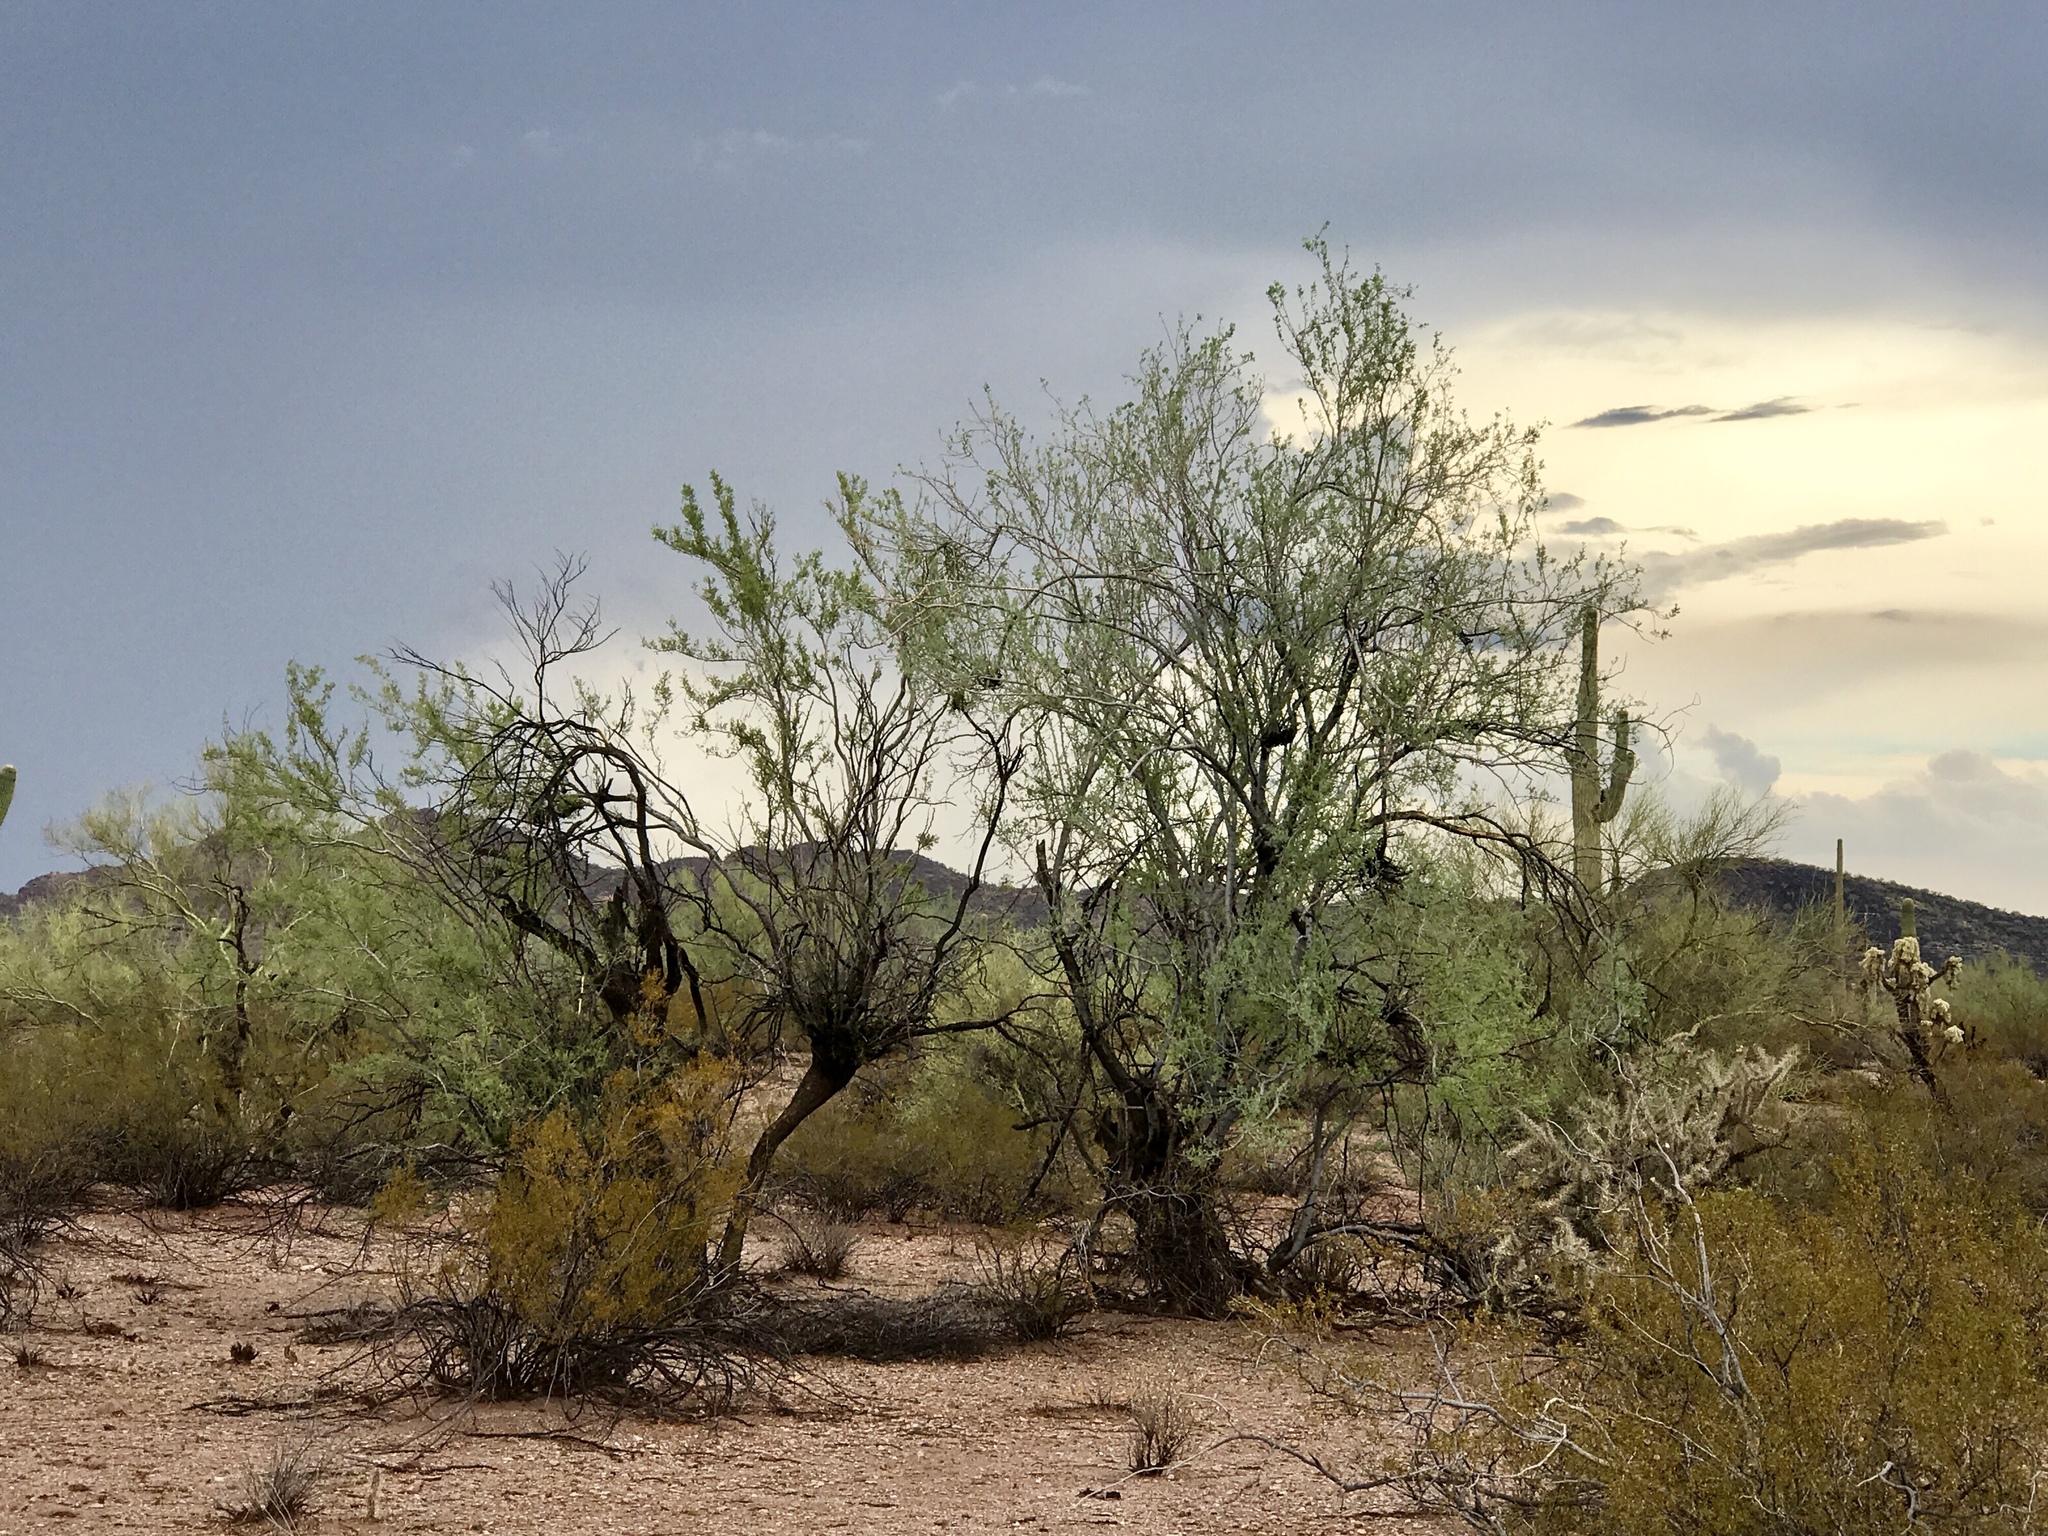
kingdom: Plantae
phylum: Tracheophyta
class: Magnoliopsida
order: Fabales
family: Fabaceae
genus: Olneya
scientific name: Olneya tesota
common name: Desert ironwood
